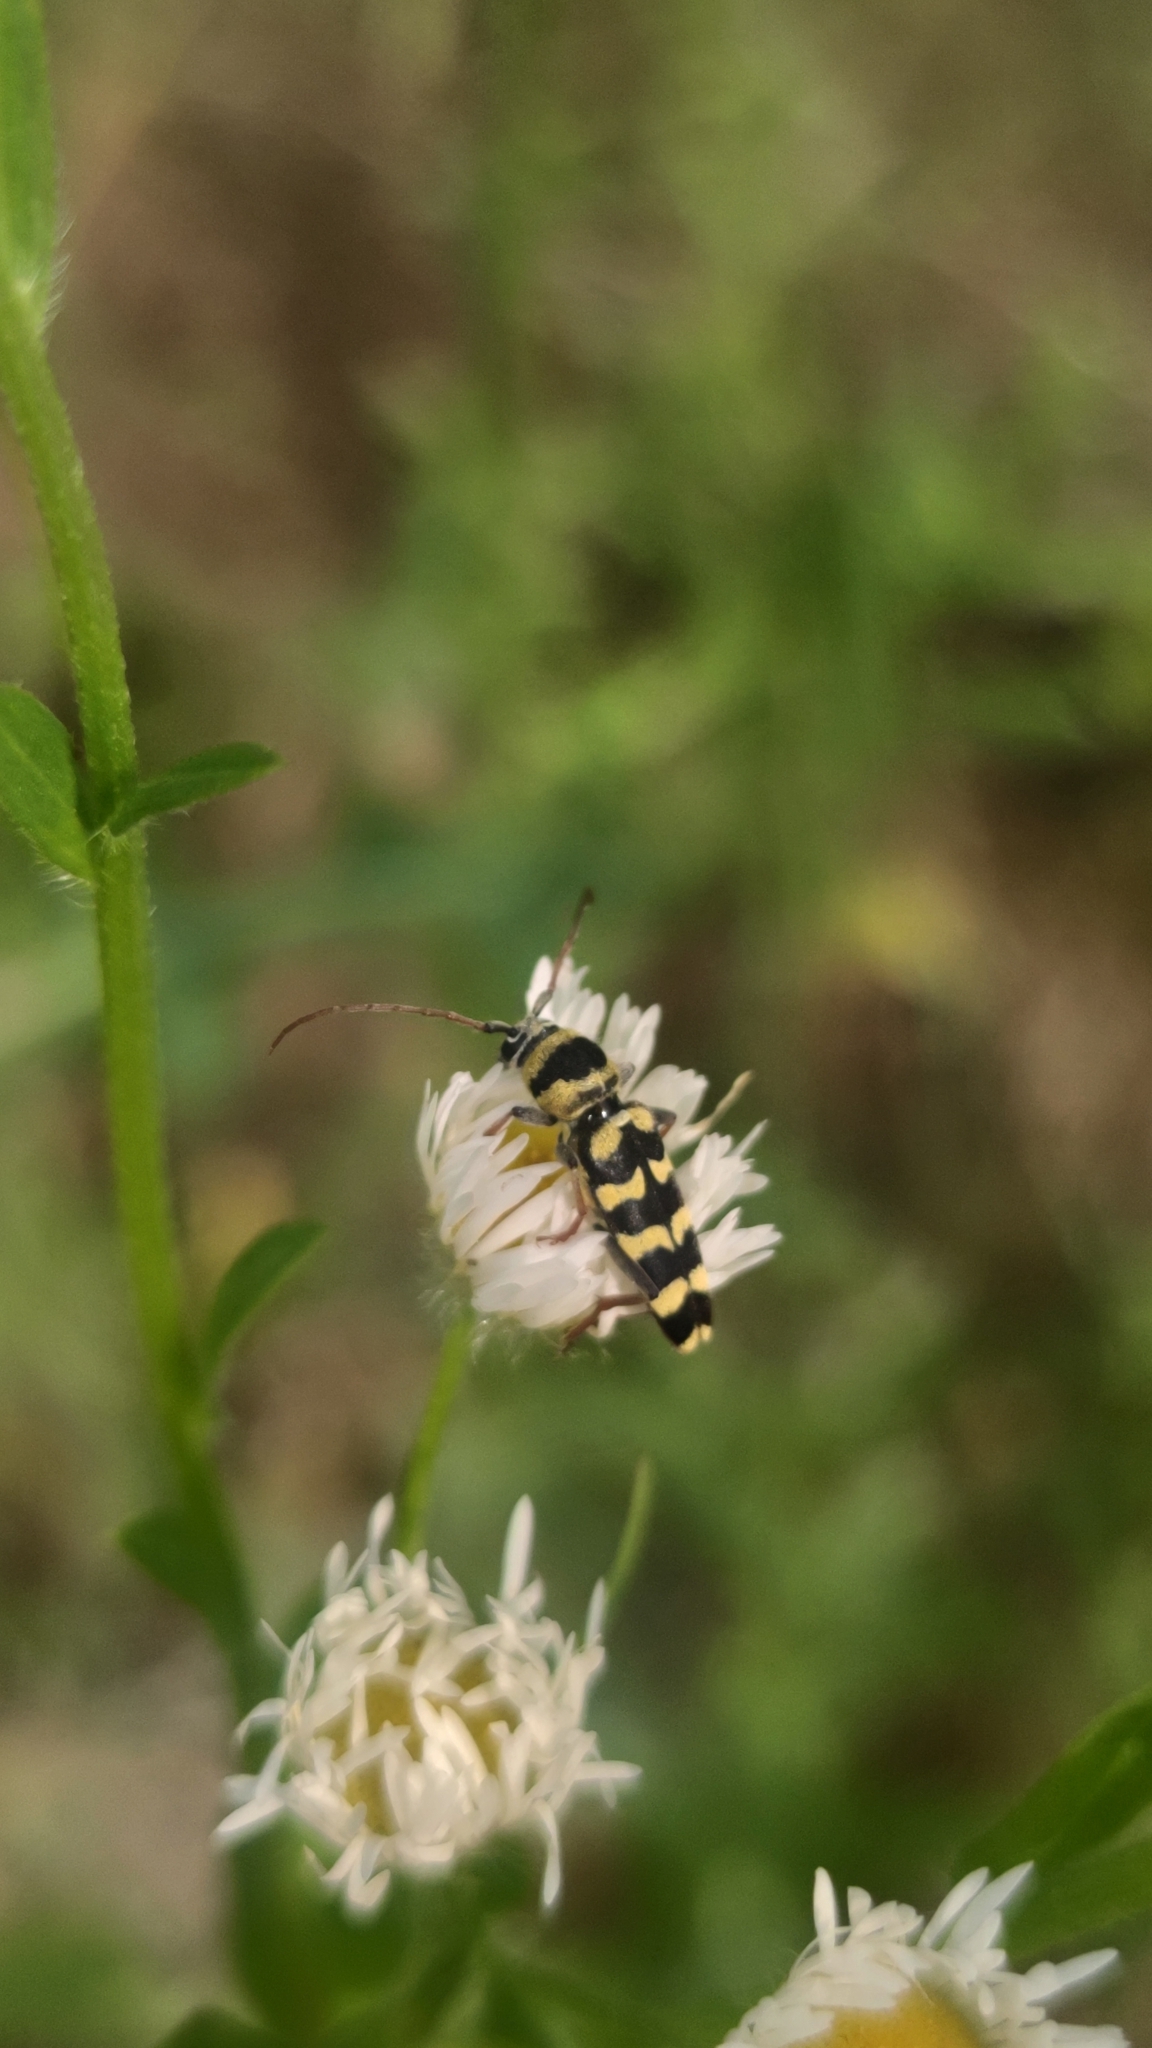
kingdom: Animalia
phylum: Arthropoda
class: Insecta
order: Coleoptera
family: Cerambycidae
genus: Plagionotus
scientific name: Plagionotus floralis
